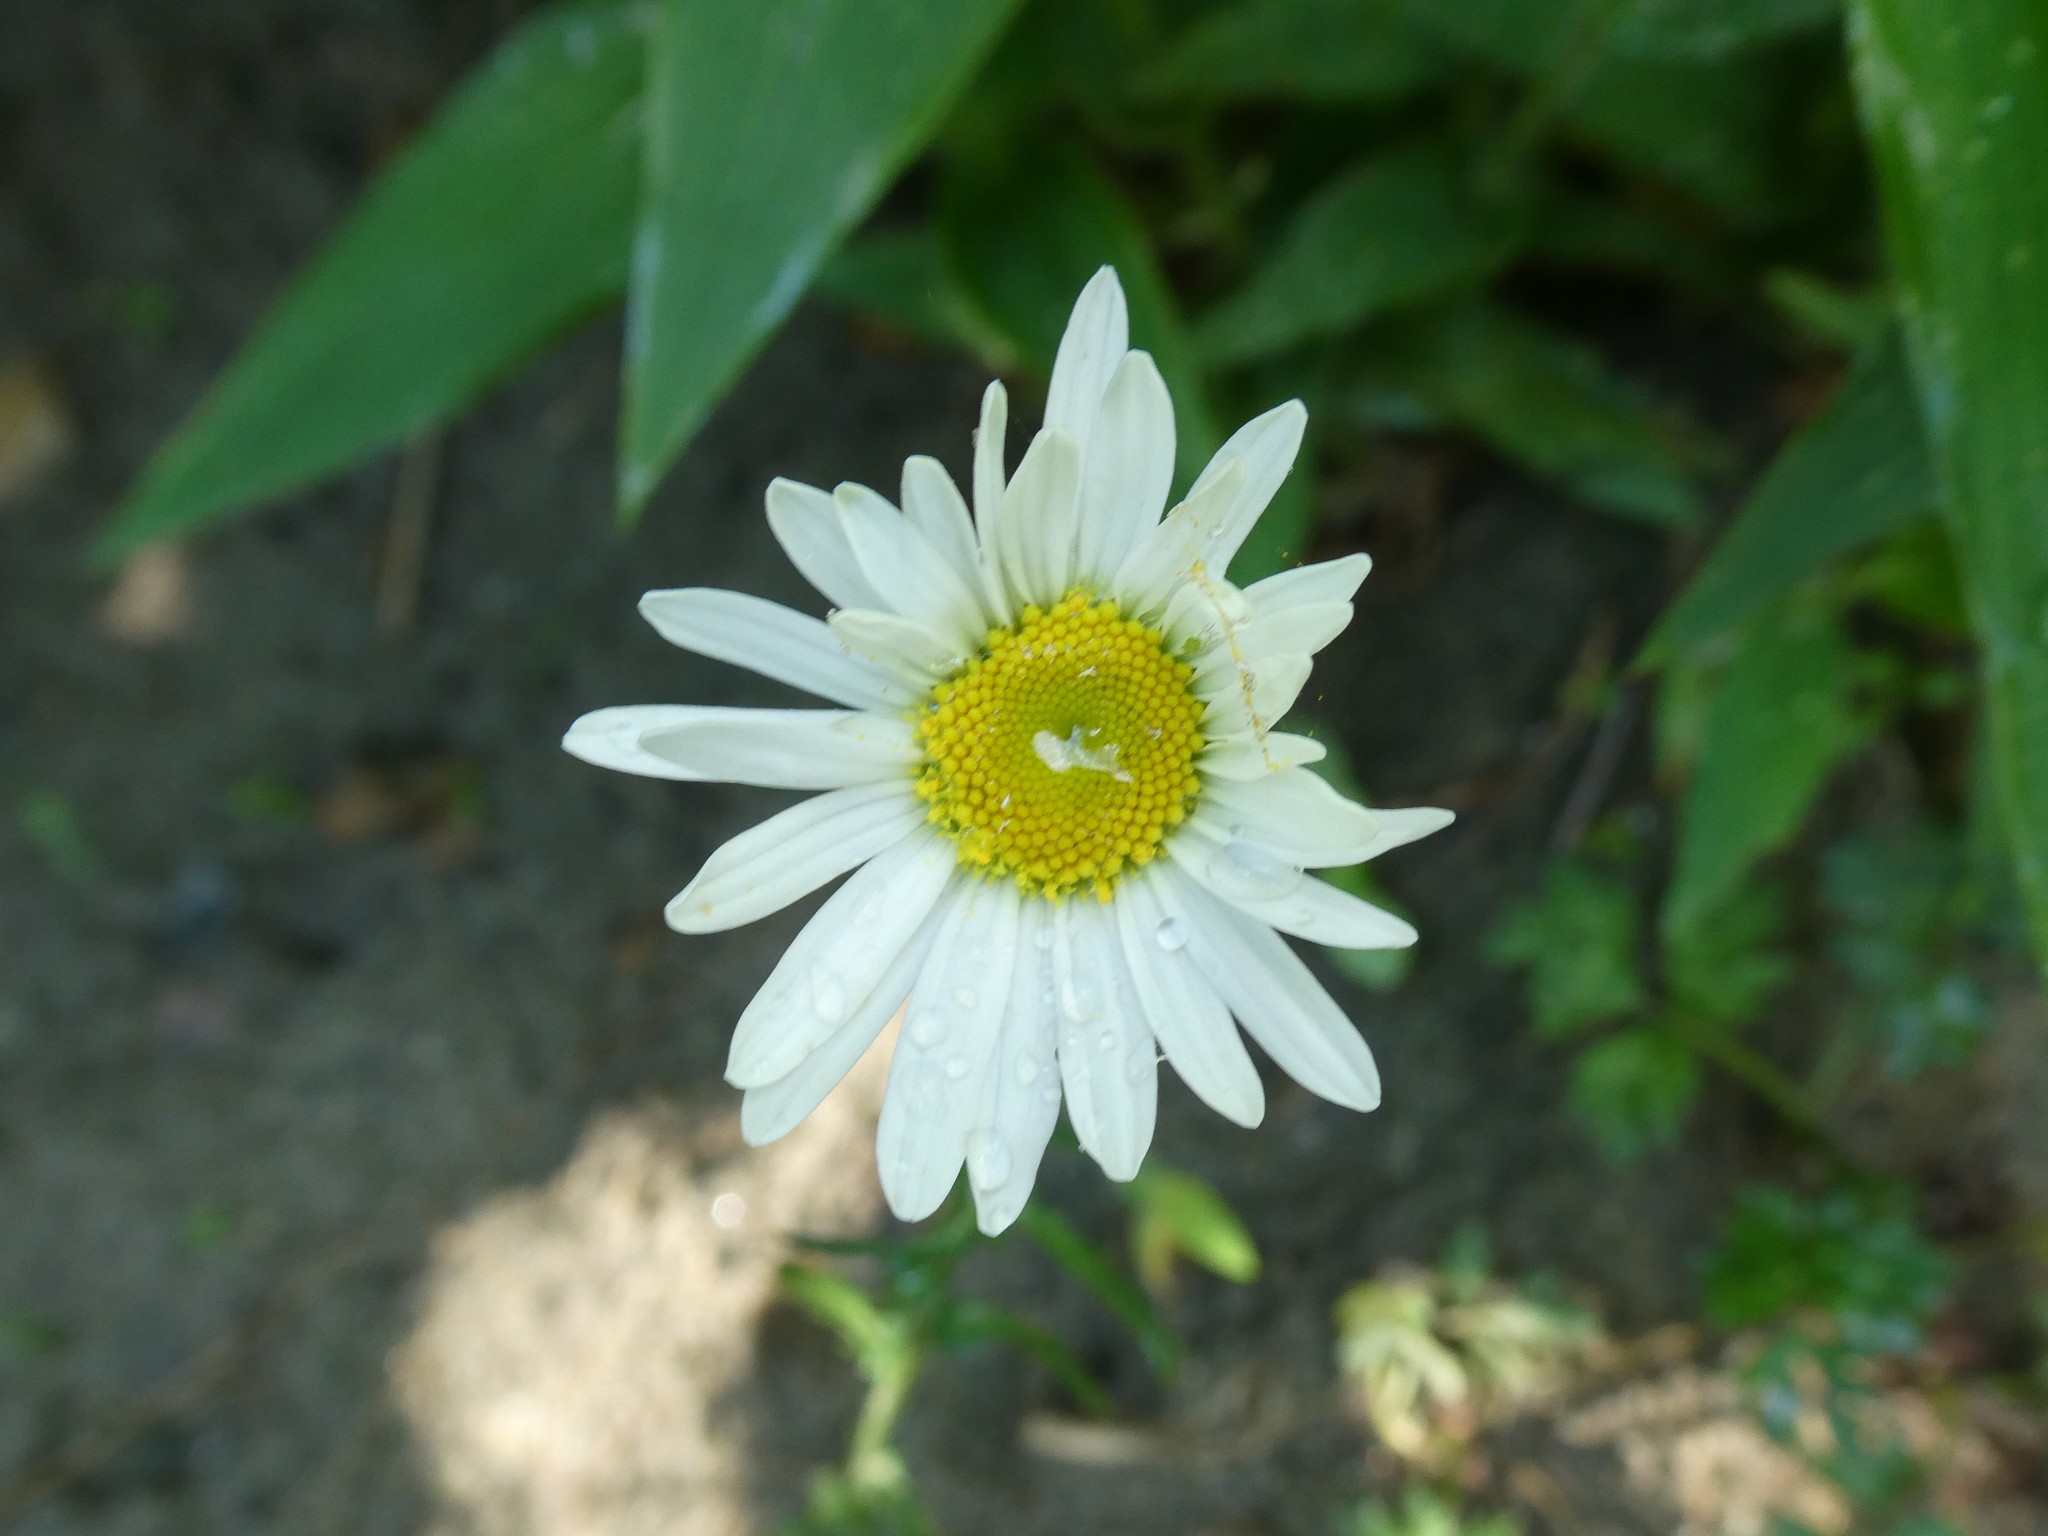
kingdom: Plantae
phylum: Tracheophyta
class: Magnoliopsida
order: Asterales
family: Asteraceae
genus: Leucanthemum
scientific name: Leucanthemum vulgare
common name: Oxeye daisy
